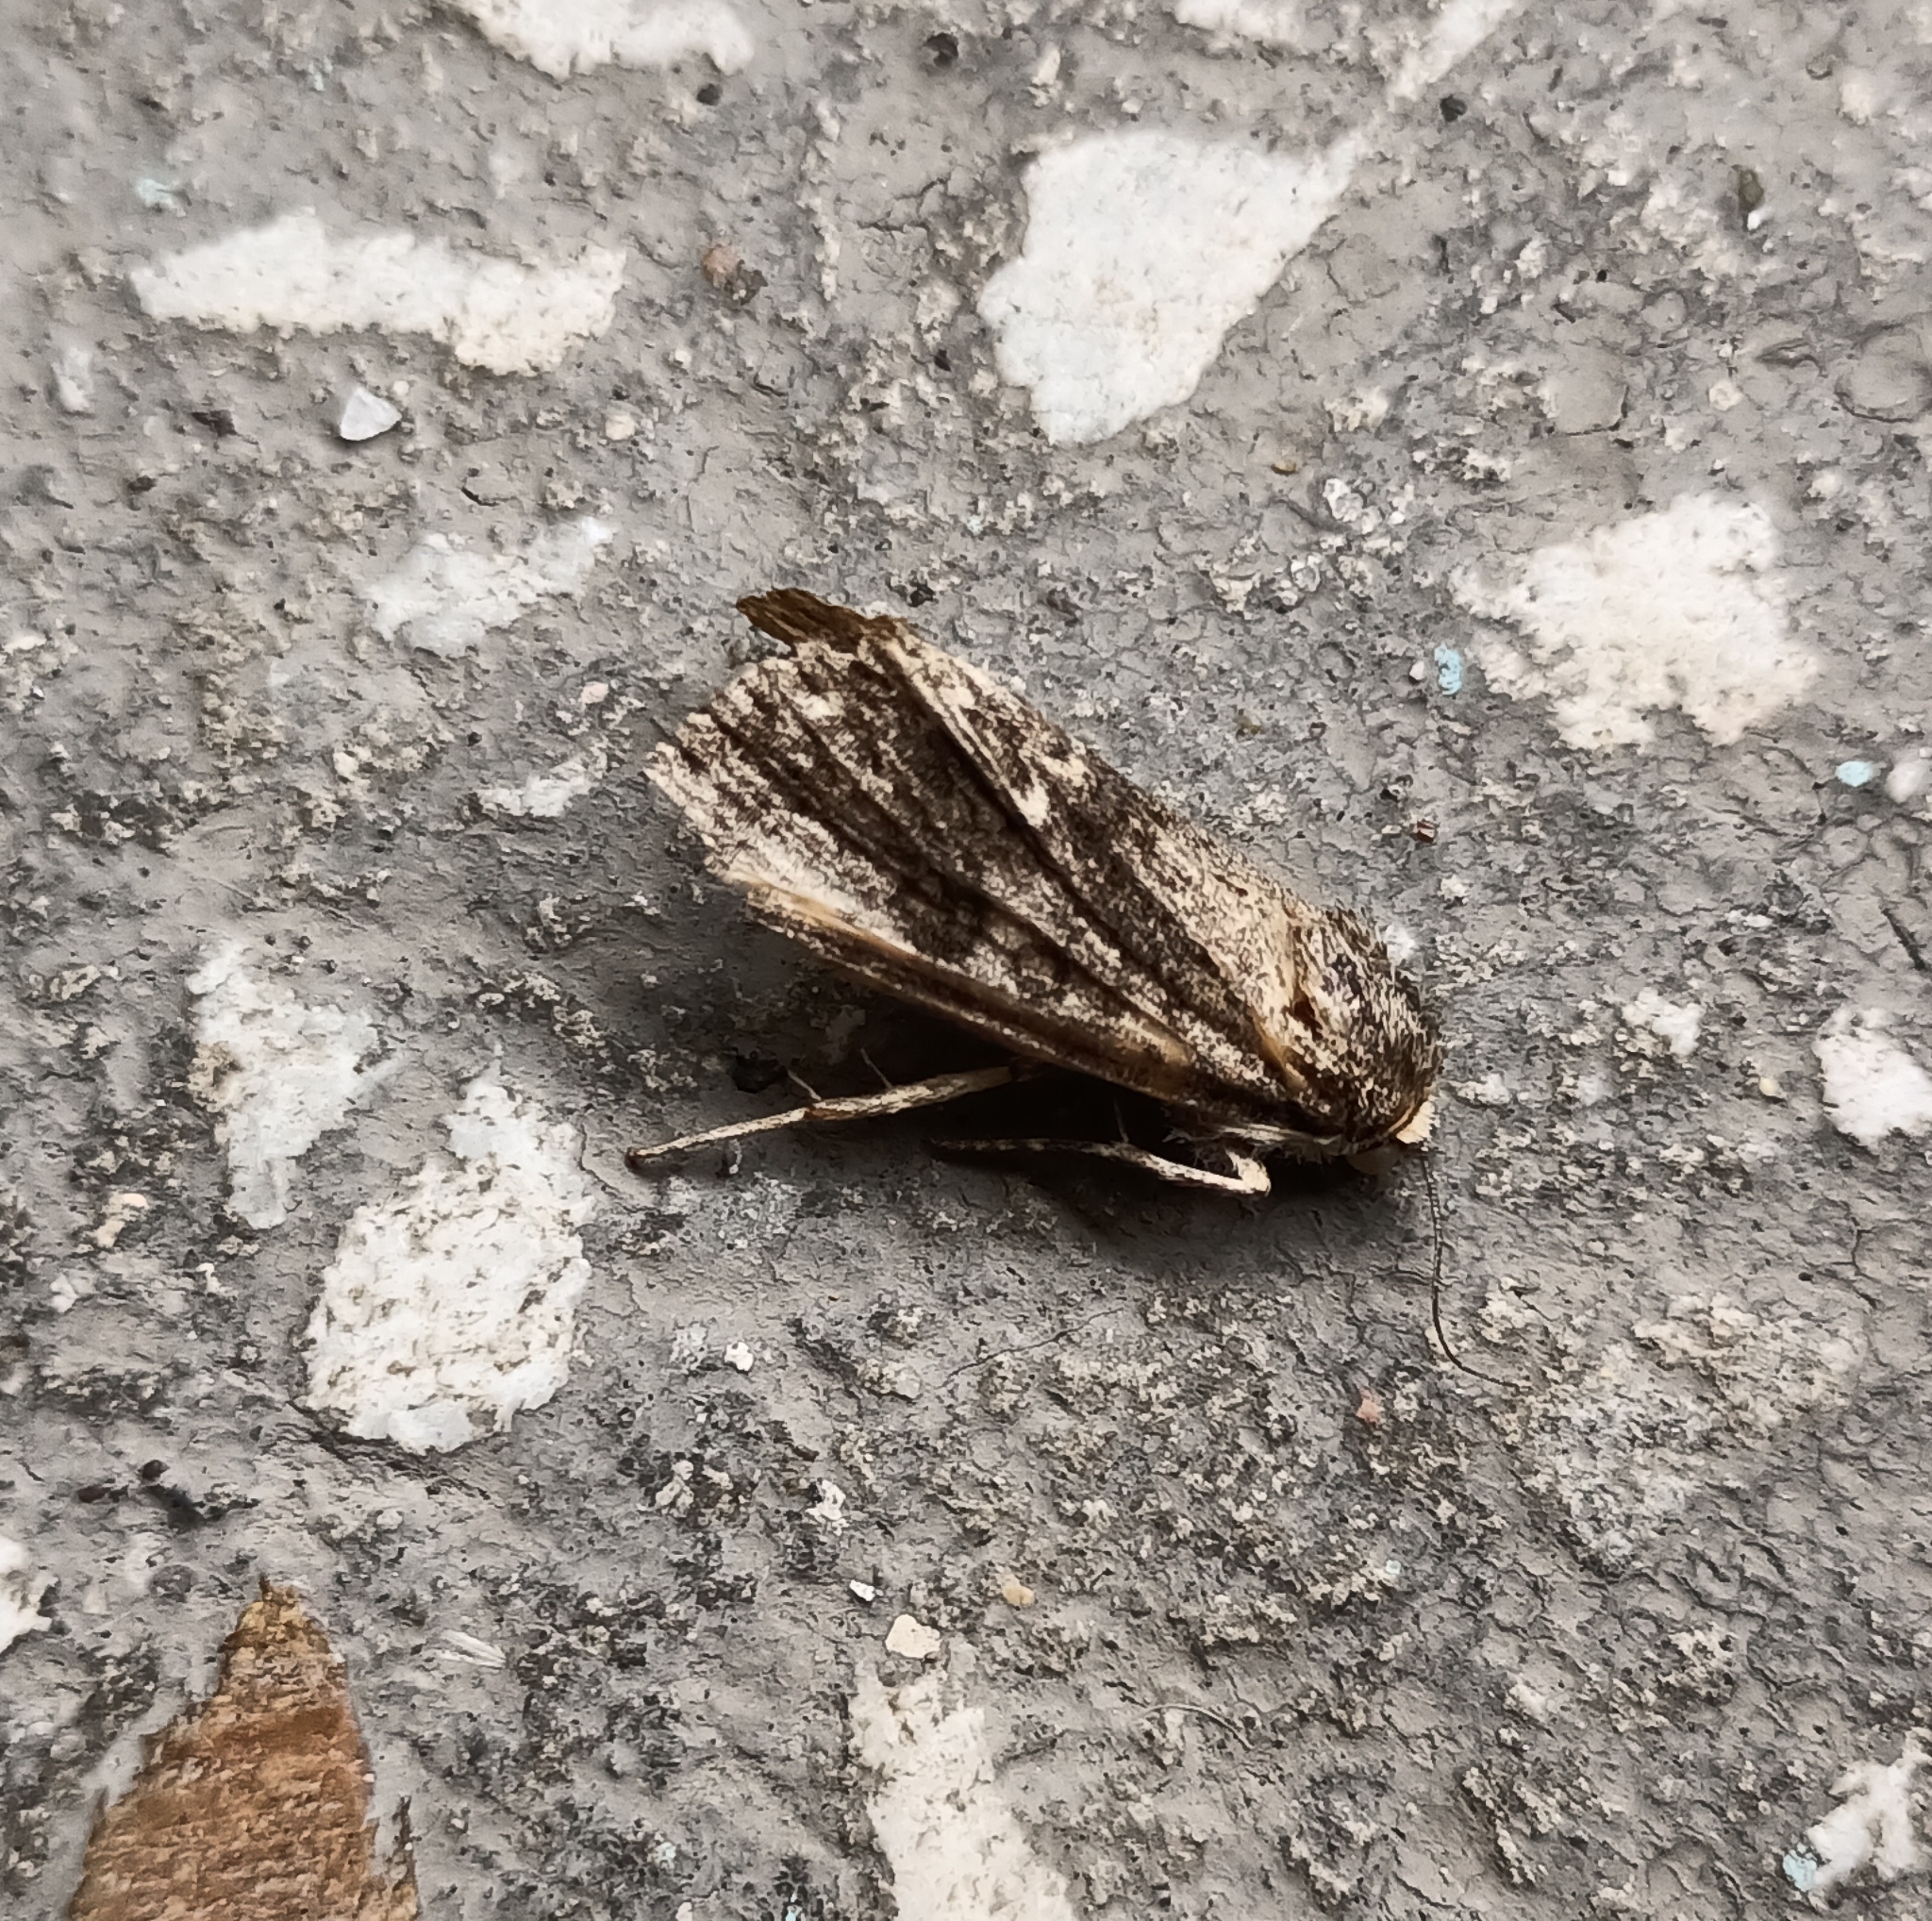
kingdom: Animalia
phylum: Arthropoda
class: Insecta
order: Lepidoptera
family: Noctuidae
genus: Acronicta
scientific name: Acronicta rumicis
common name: Knot grass
